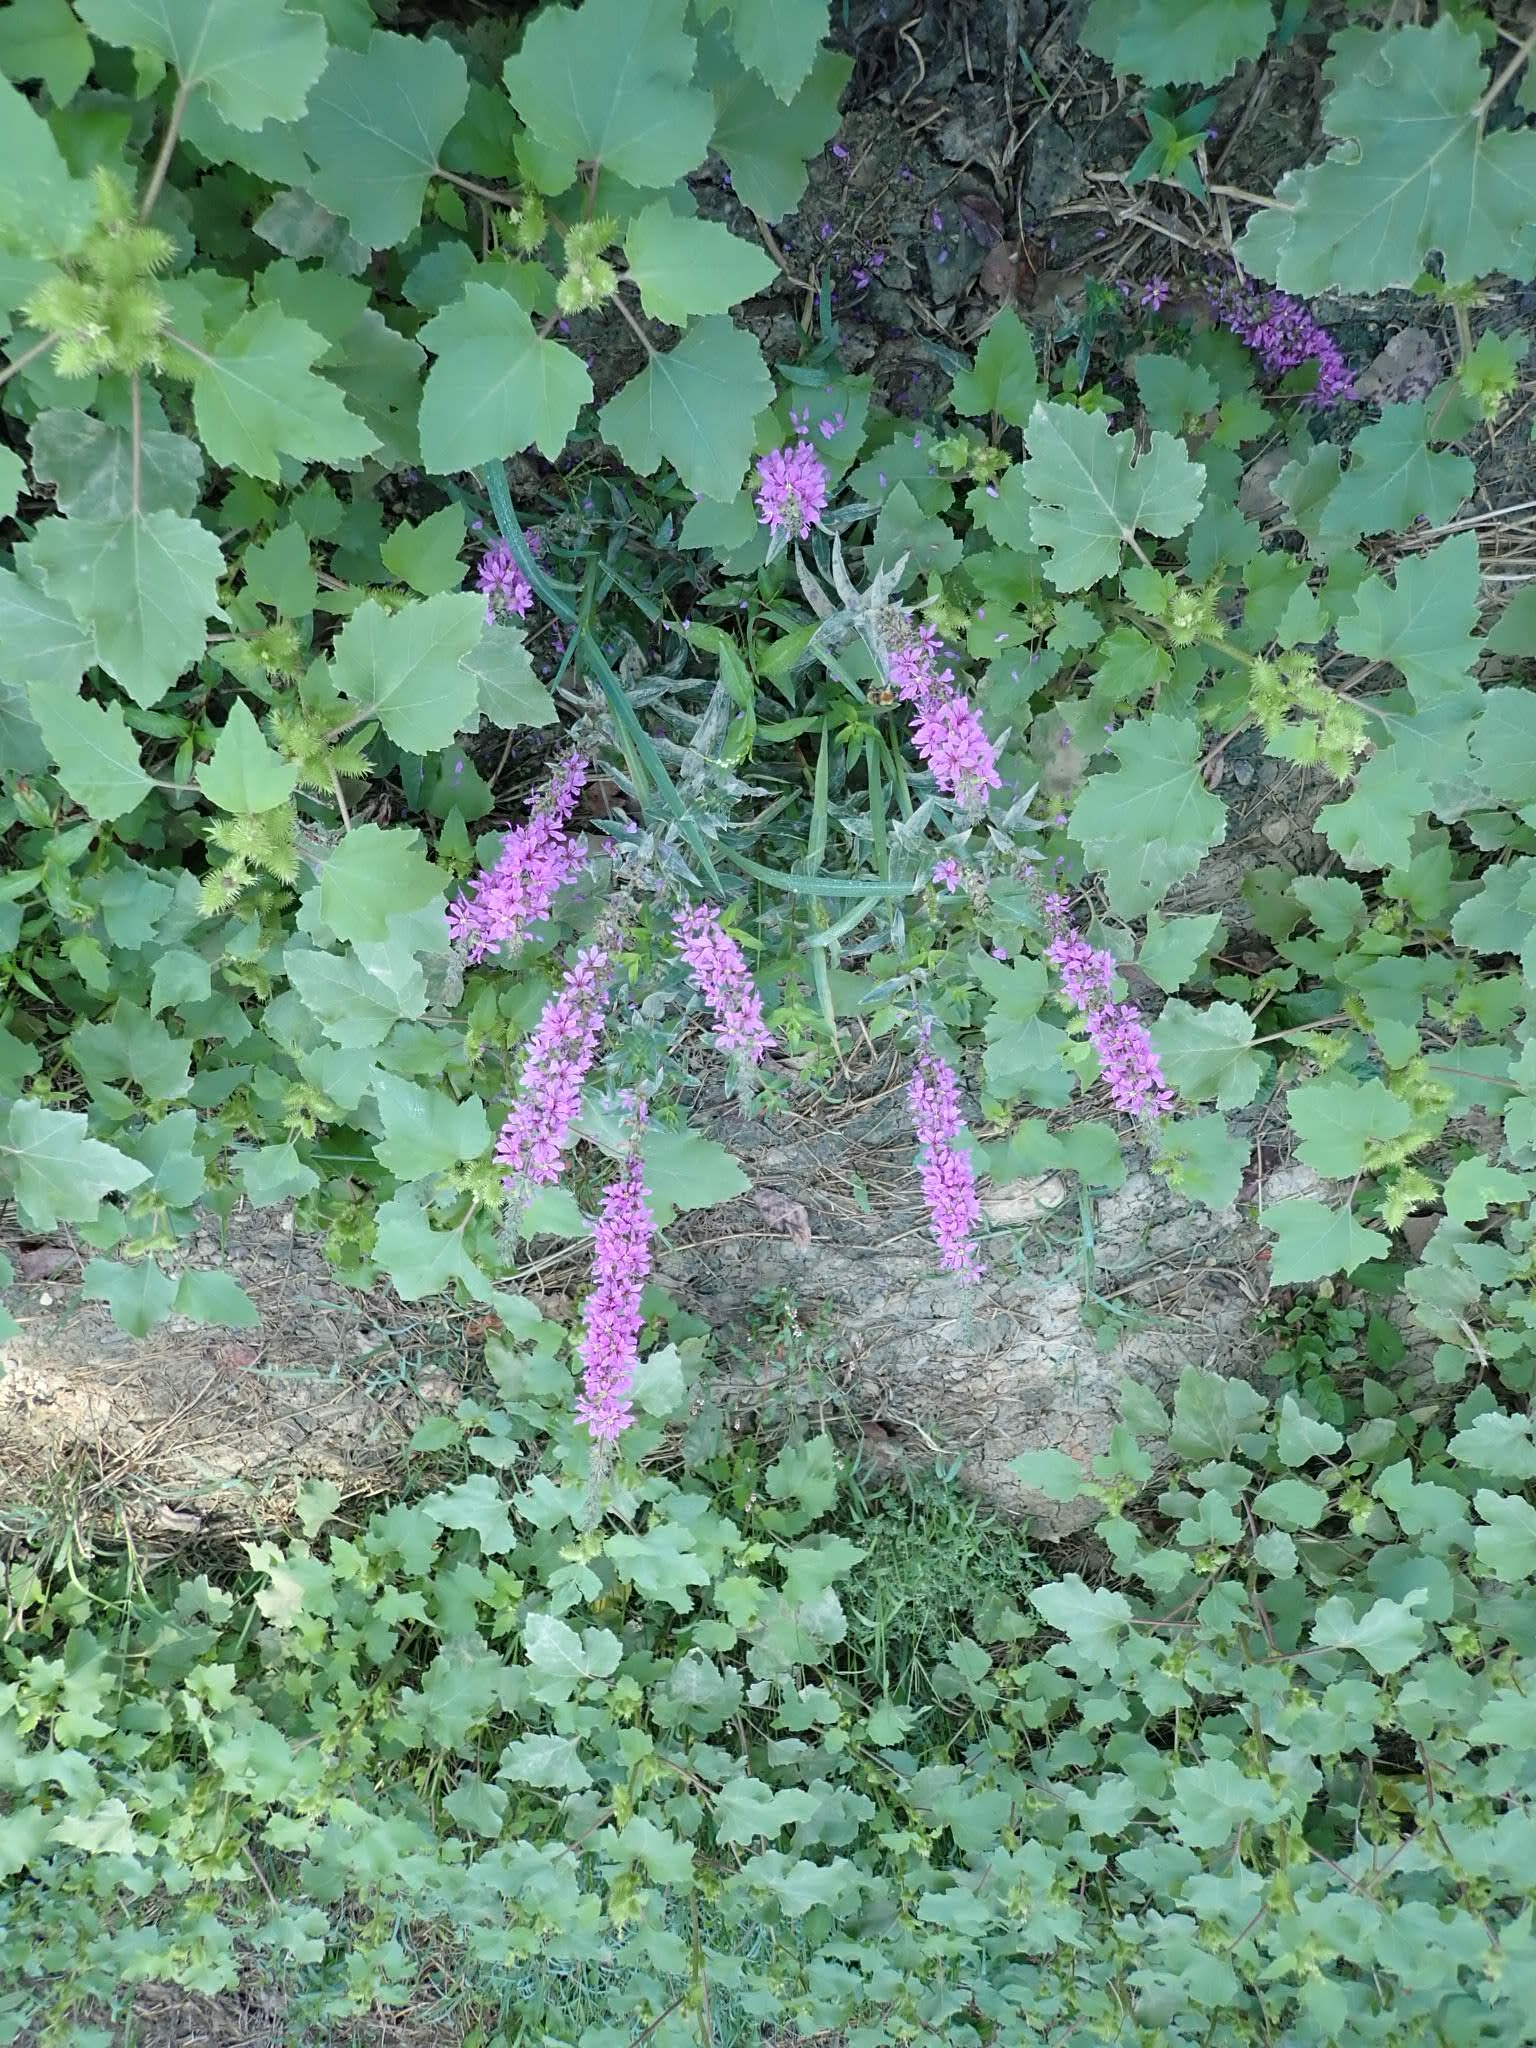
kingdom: Plantae
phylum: Tracheophyta
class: Magnoliopsida
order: Myrtales
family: Lythraceae
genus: Lythrum
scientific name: Lythrum salicaria
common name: Purple loosestrife
